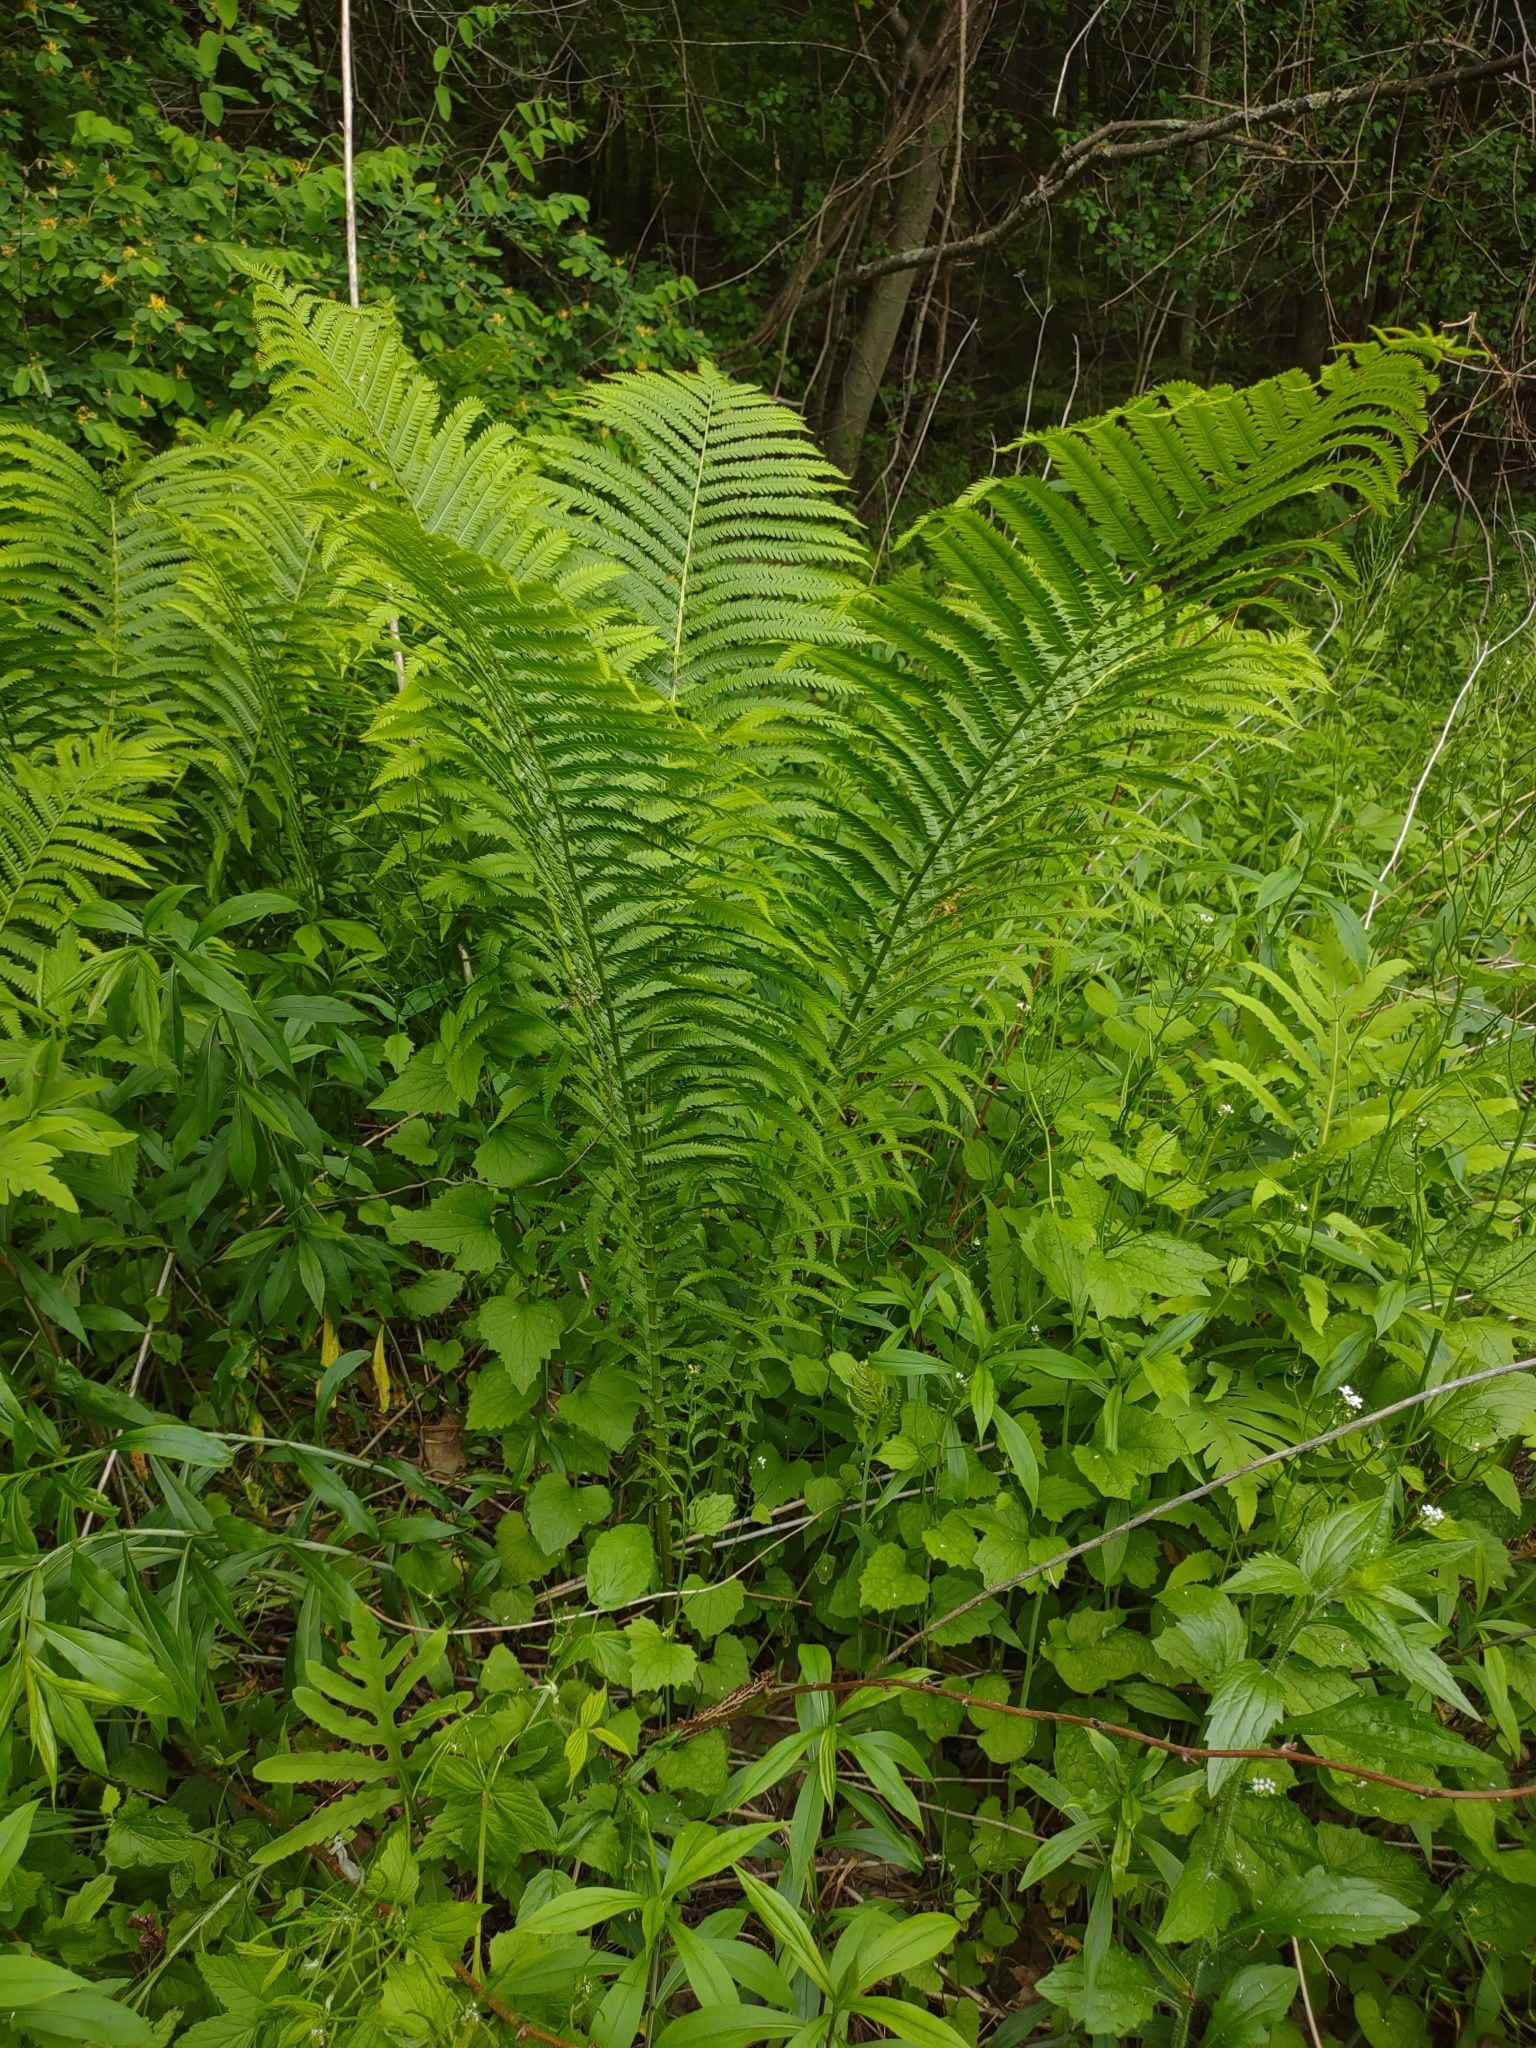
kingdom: Plantae
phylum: Tracheophyta
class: Polypodiopsida
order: Polypodiales
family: Onocleaceae
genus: Matteuccia
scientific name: Matteuccia struthiopteris
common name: Ostrich fern
